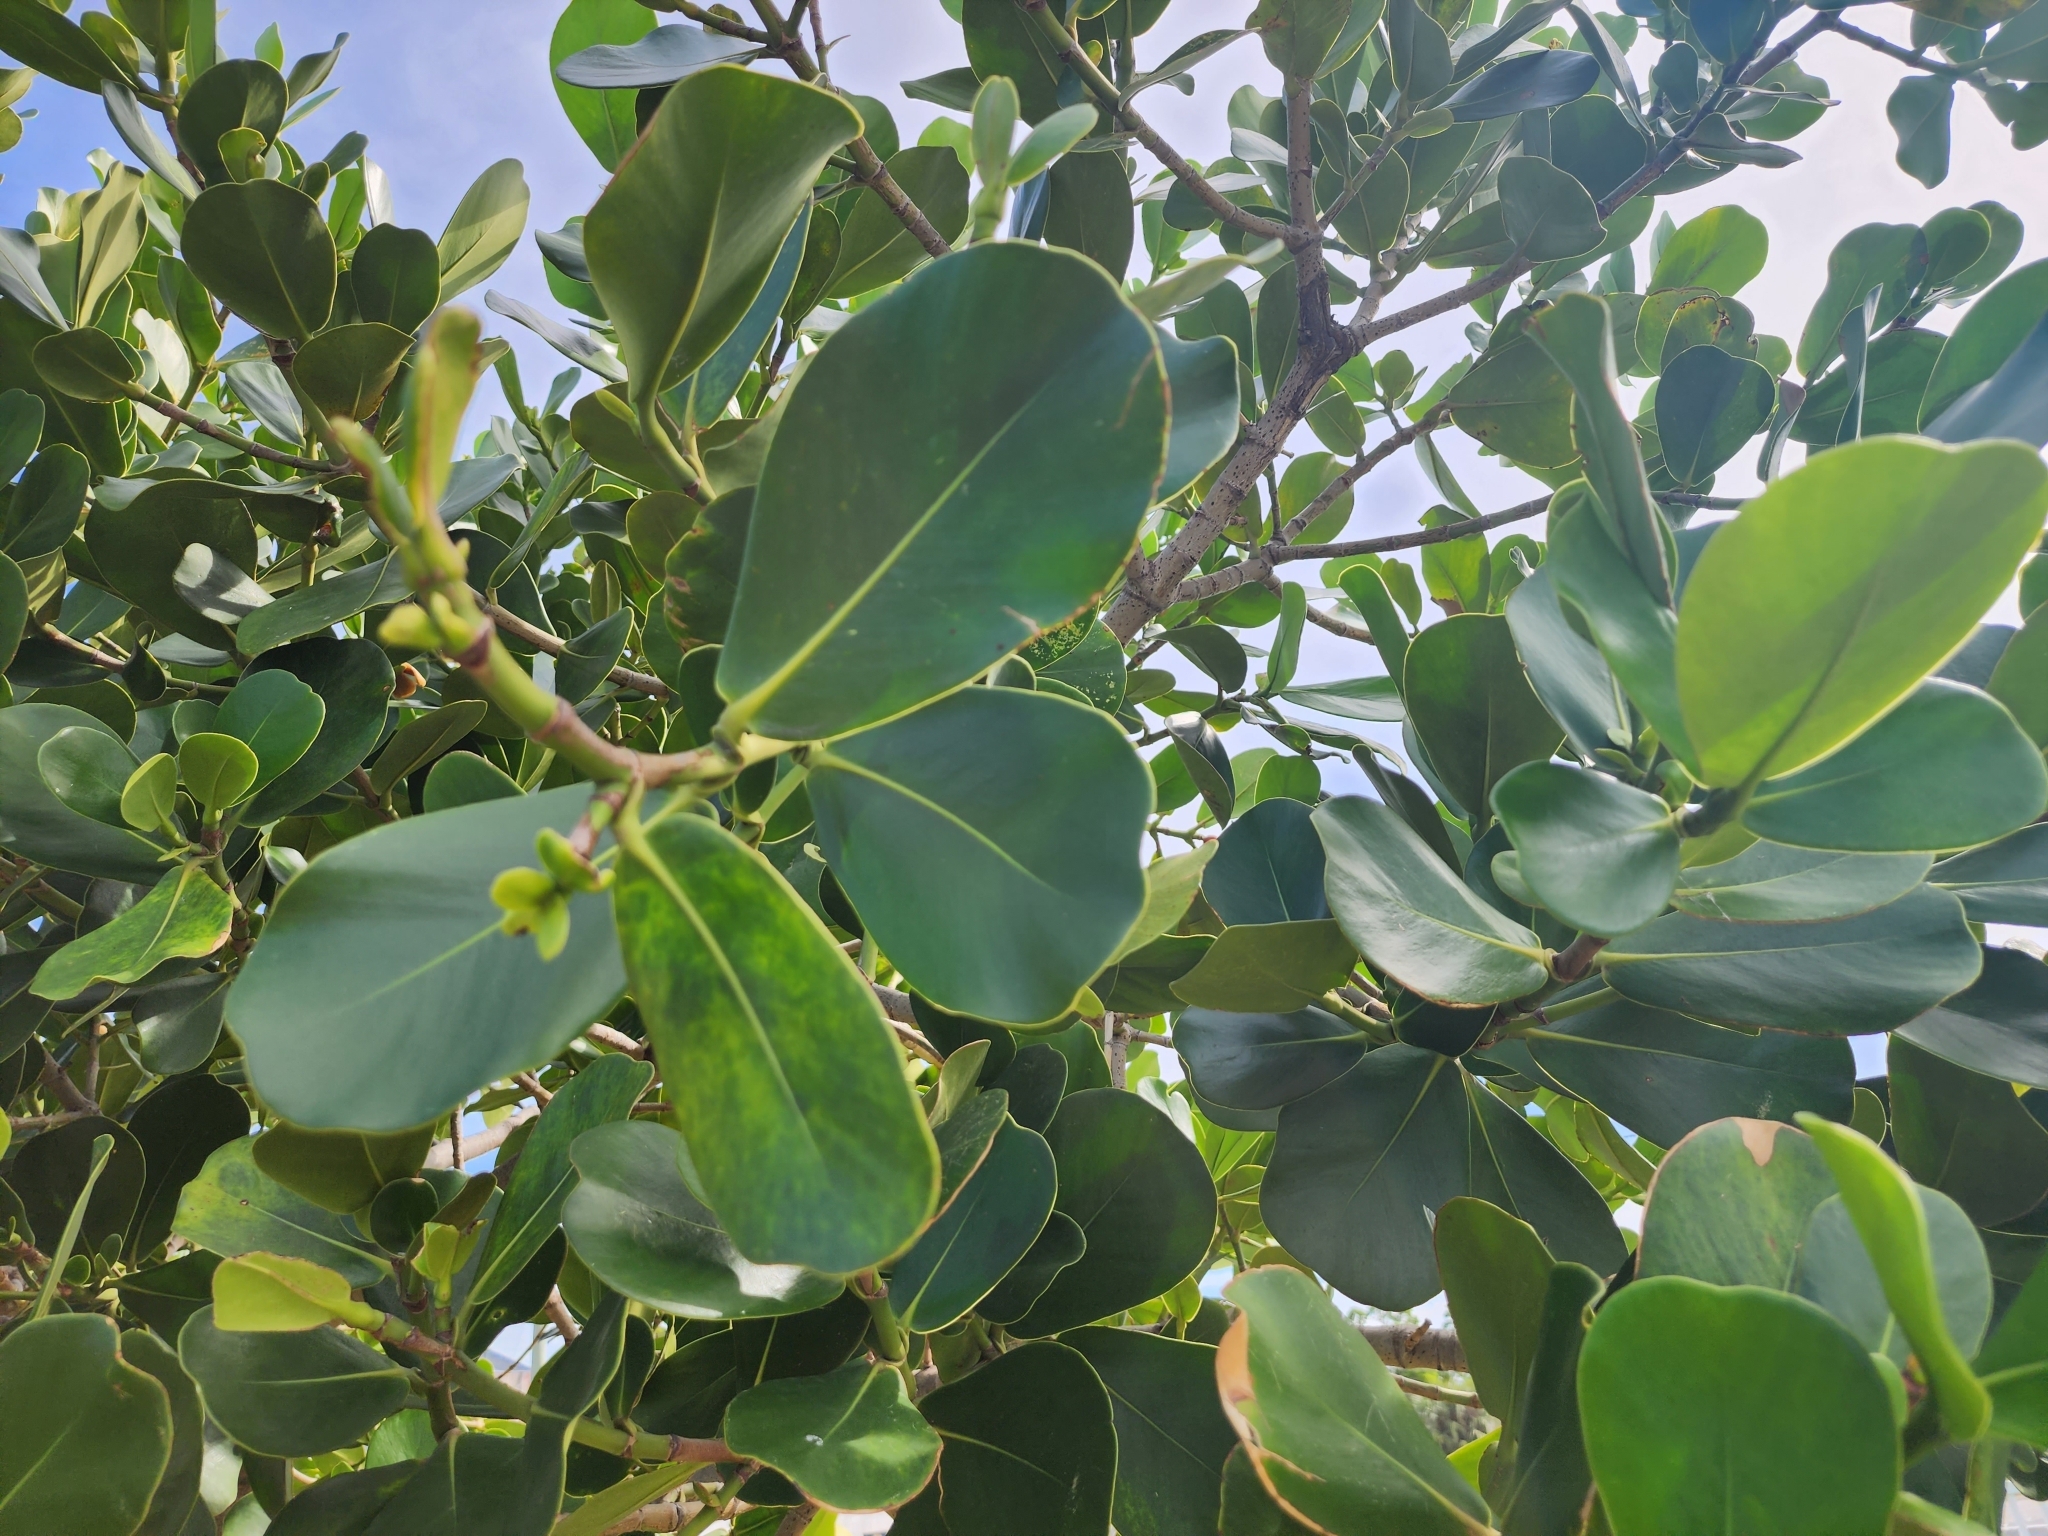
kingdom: Plantae
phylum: Tracheophyta
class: Magnoliopsida
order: Malpighiales
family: Clusiaceae
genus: Clusia
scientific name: Clusia rosea
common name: Scotch attorney
